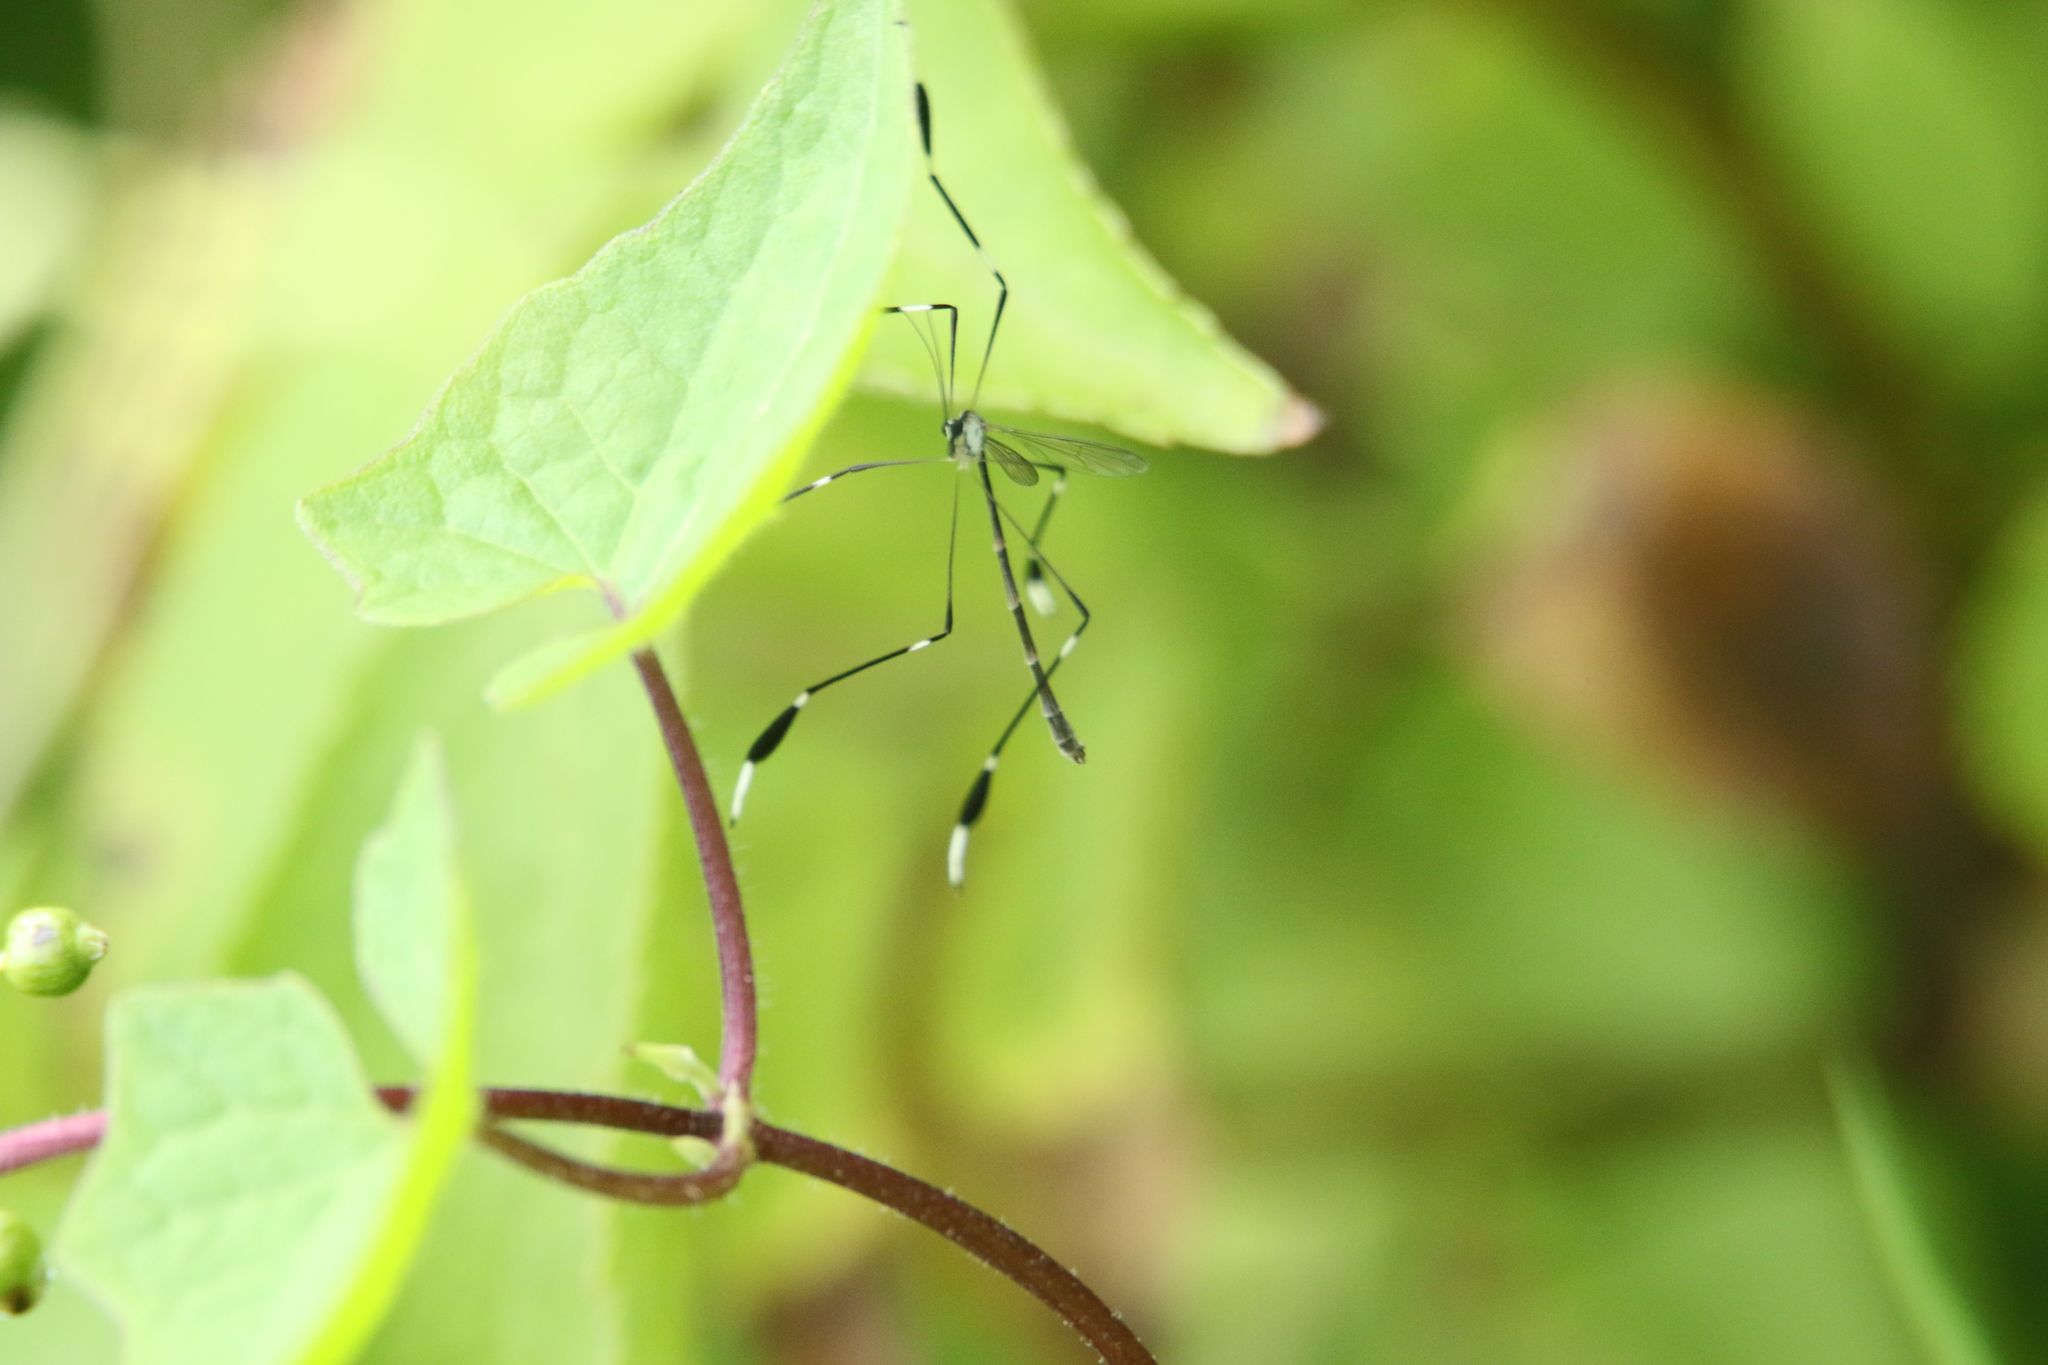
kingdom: Animalia
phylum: Arthropoda
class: Insecta
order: Diptera
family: Ptychopteridae
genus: Bittacomorpha
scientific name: Bittacomorpha clavipes
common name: Eastern phantom crane fly
